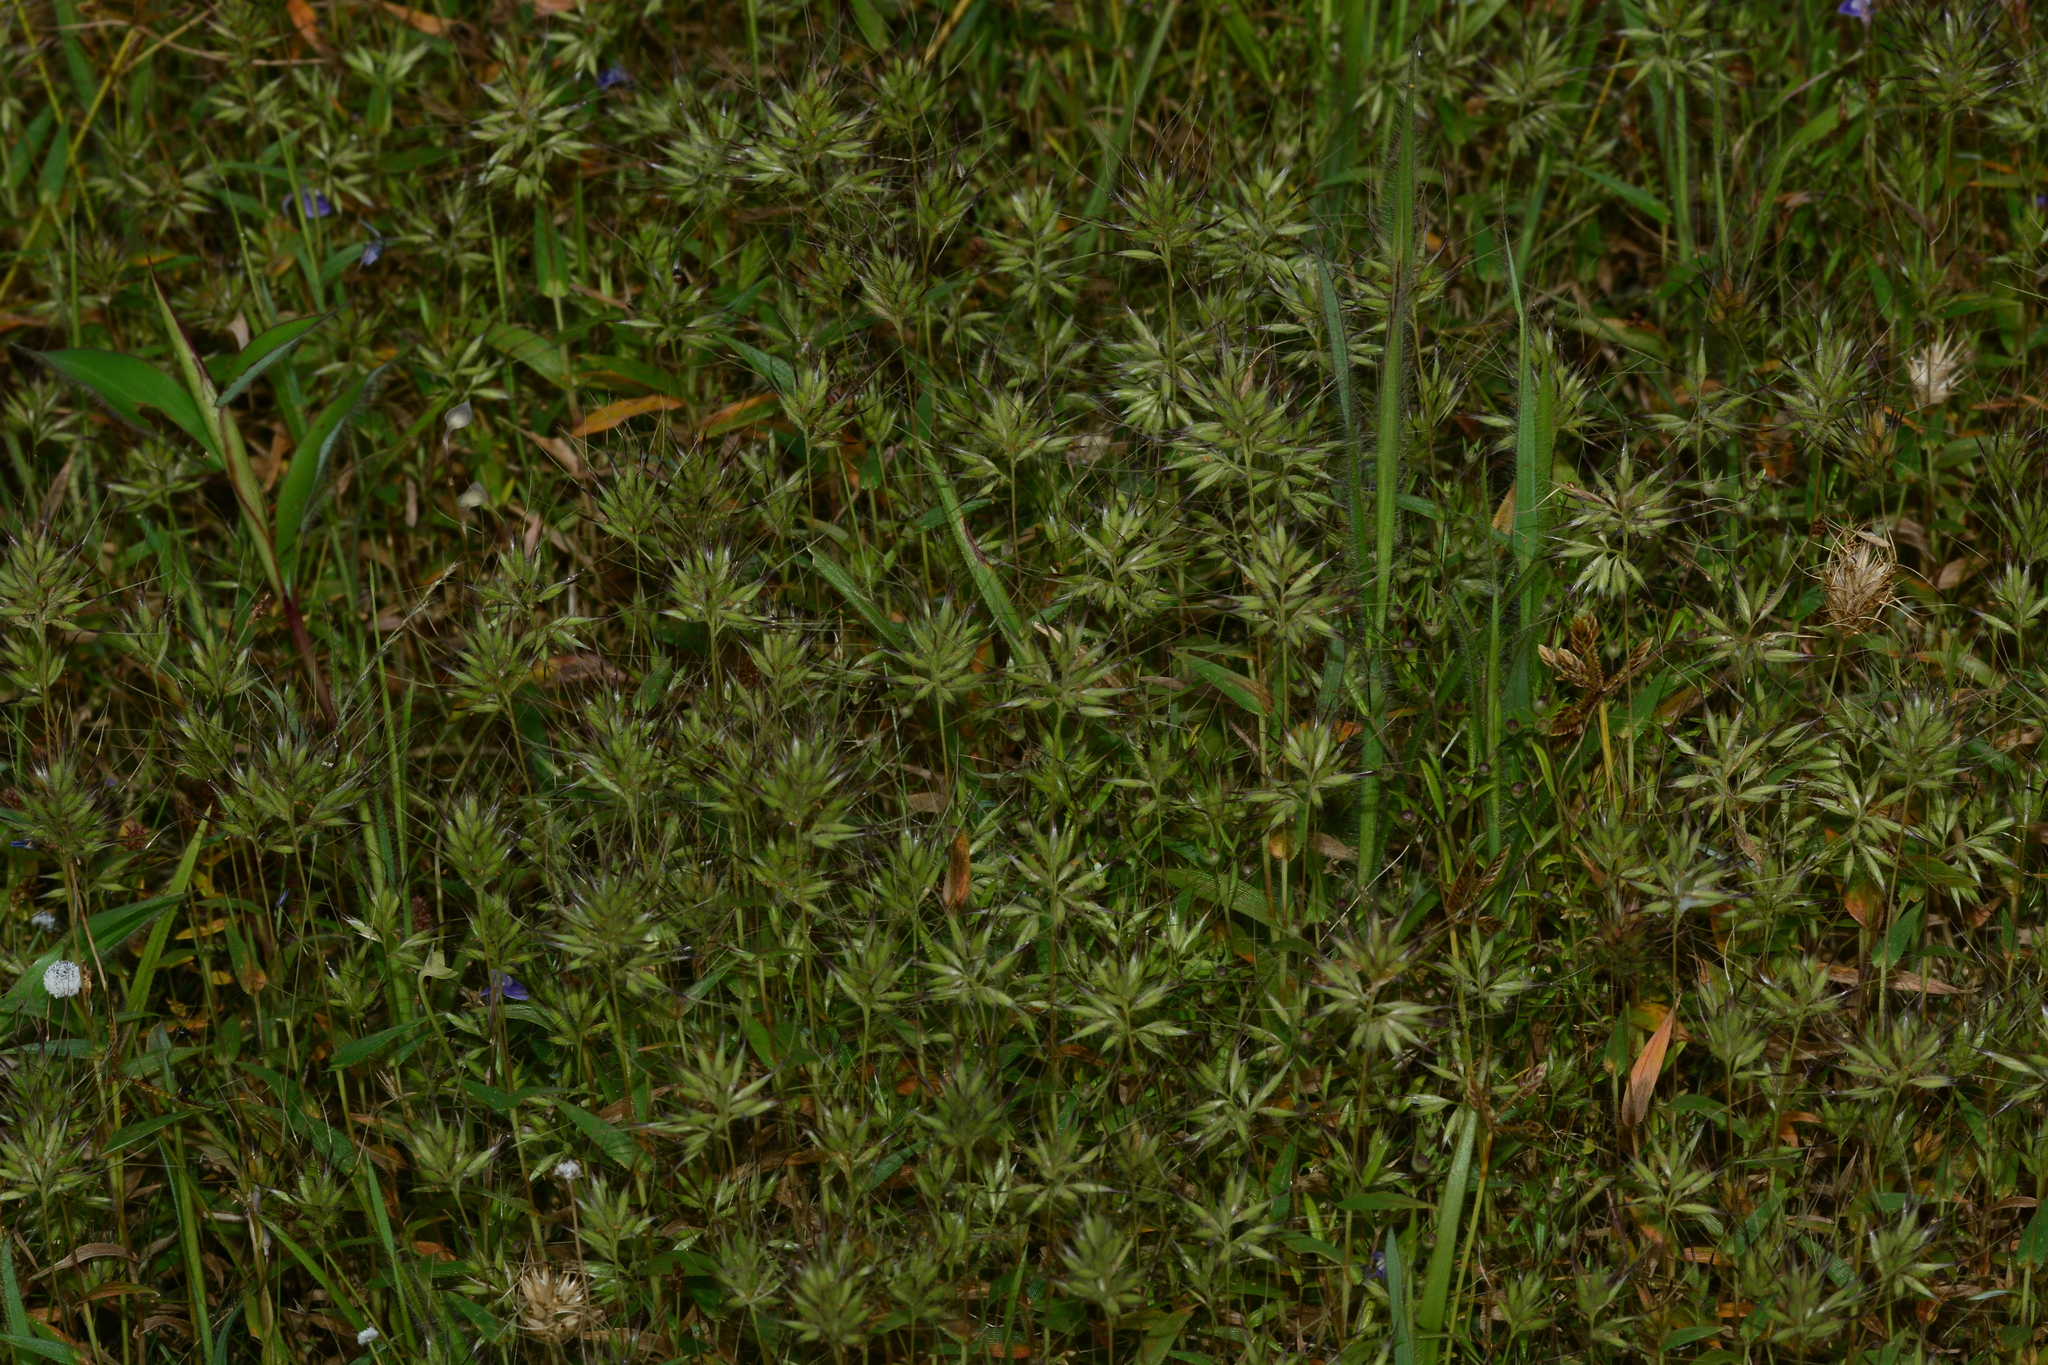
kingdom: Plantae
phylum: Tracheophyta
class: Liliopsida
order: Poales
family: Poaceae
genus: Jansenella
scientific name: Jansenella neglecta
